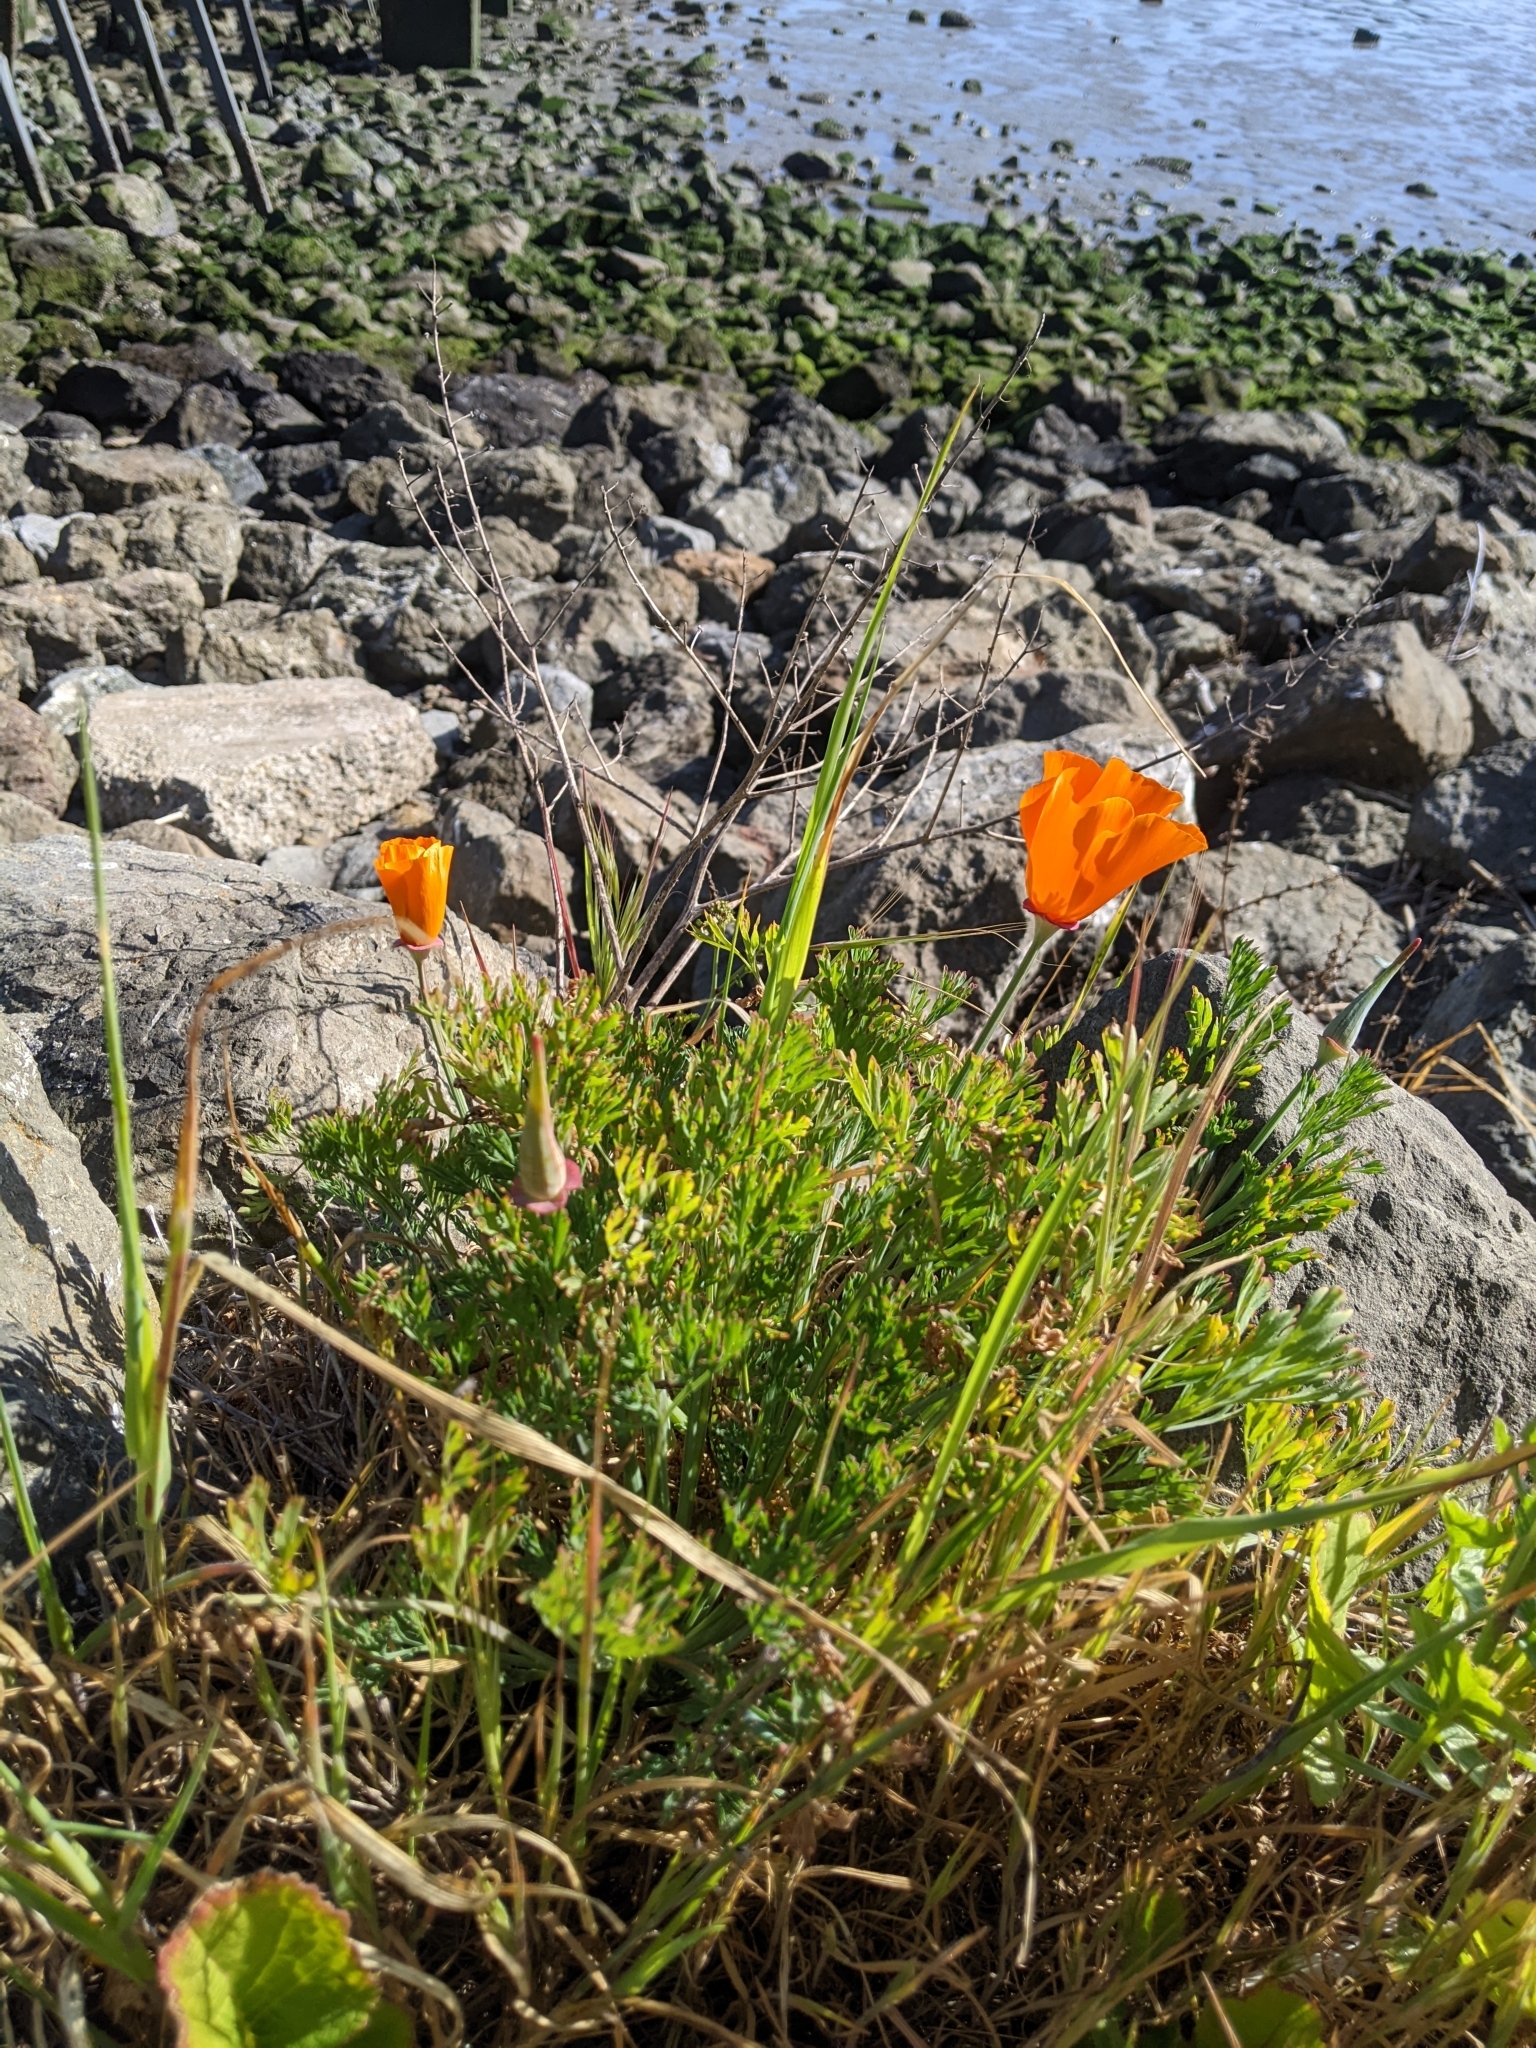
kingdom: Plantae
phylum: Tracheophyta
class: Magnoliopsida
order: Ranunculales
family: Papaveraceae
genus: Eschscholzia
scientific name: Eschscholzia californica
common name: California poppy
